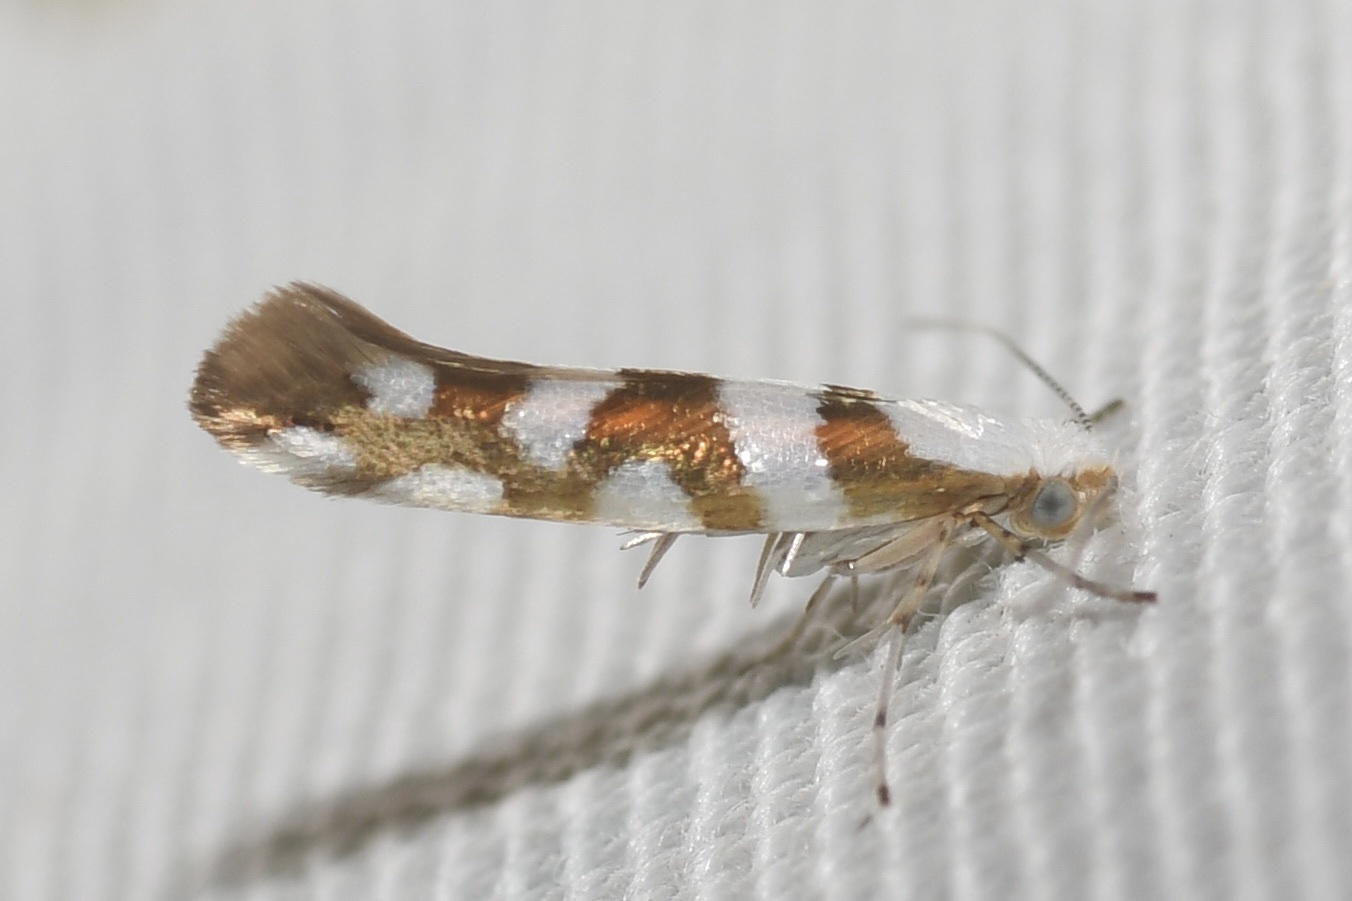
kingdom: Animalia
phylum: Arthropoda
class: Insecta
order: Lepidoptera
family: Argyresthiidae
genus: Argyresthia
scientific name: Argyresthia calliphanes
